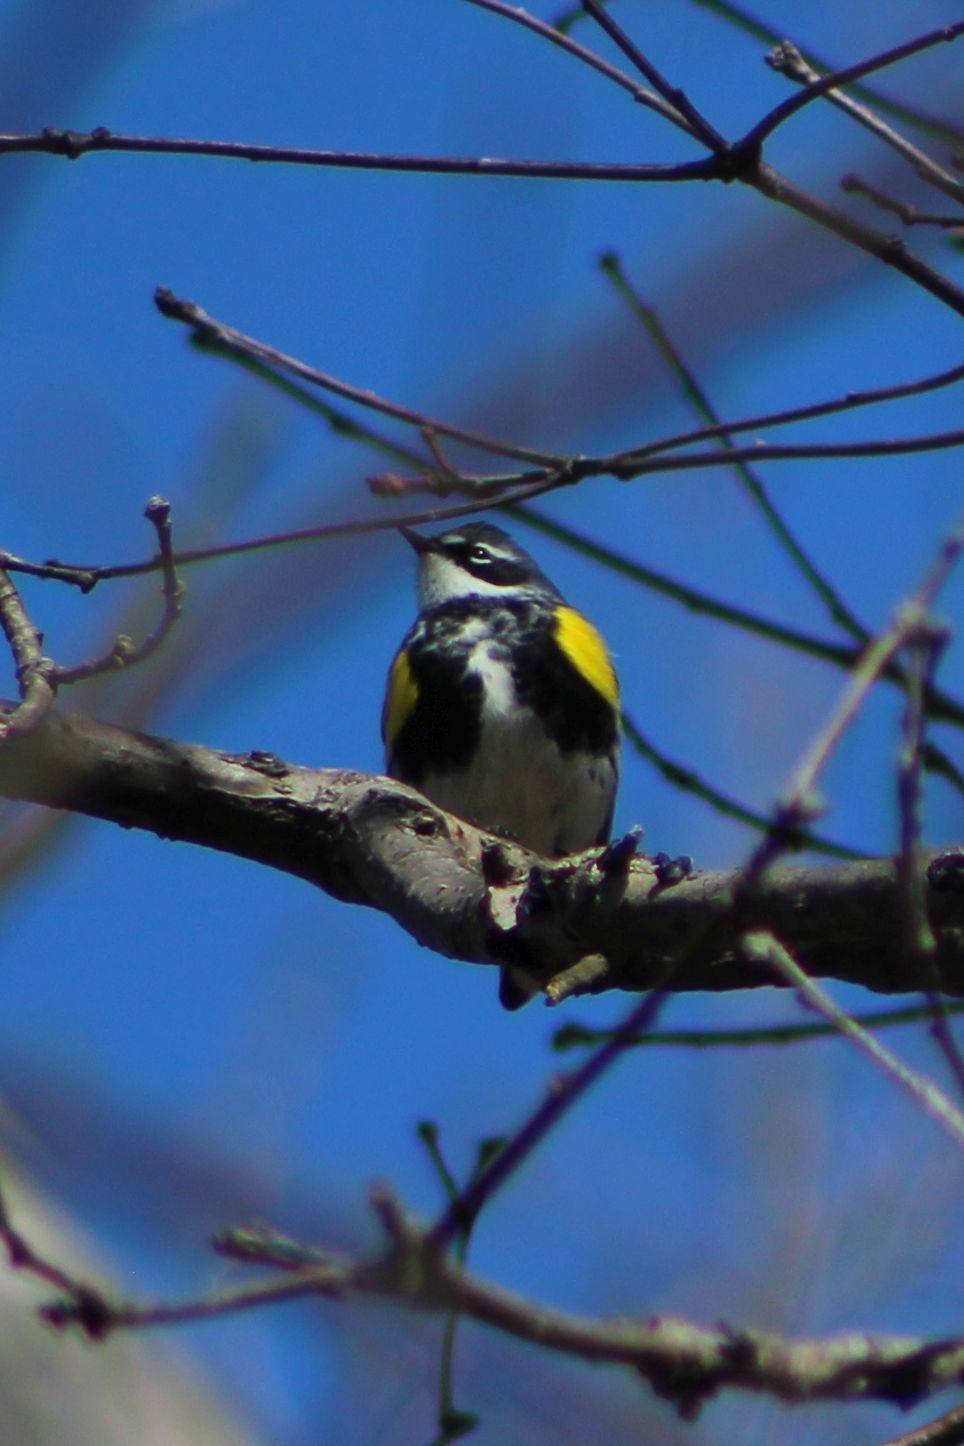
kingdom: Animalia
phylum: Chordata
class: Aves
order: Passeriformes
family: Parulidae
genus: Setophaga
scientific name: Setophaga coronata
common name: Myrtle warbler
